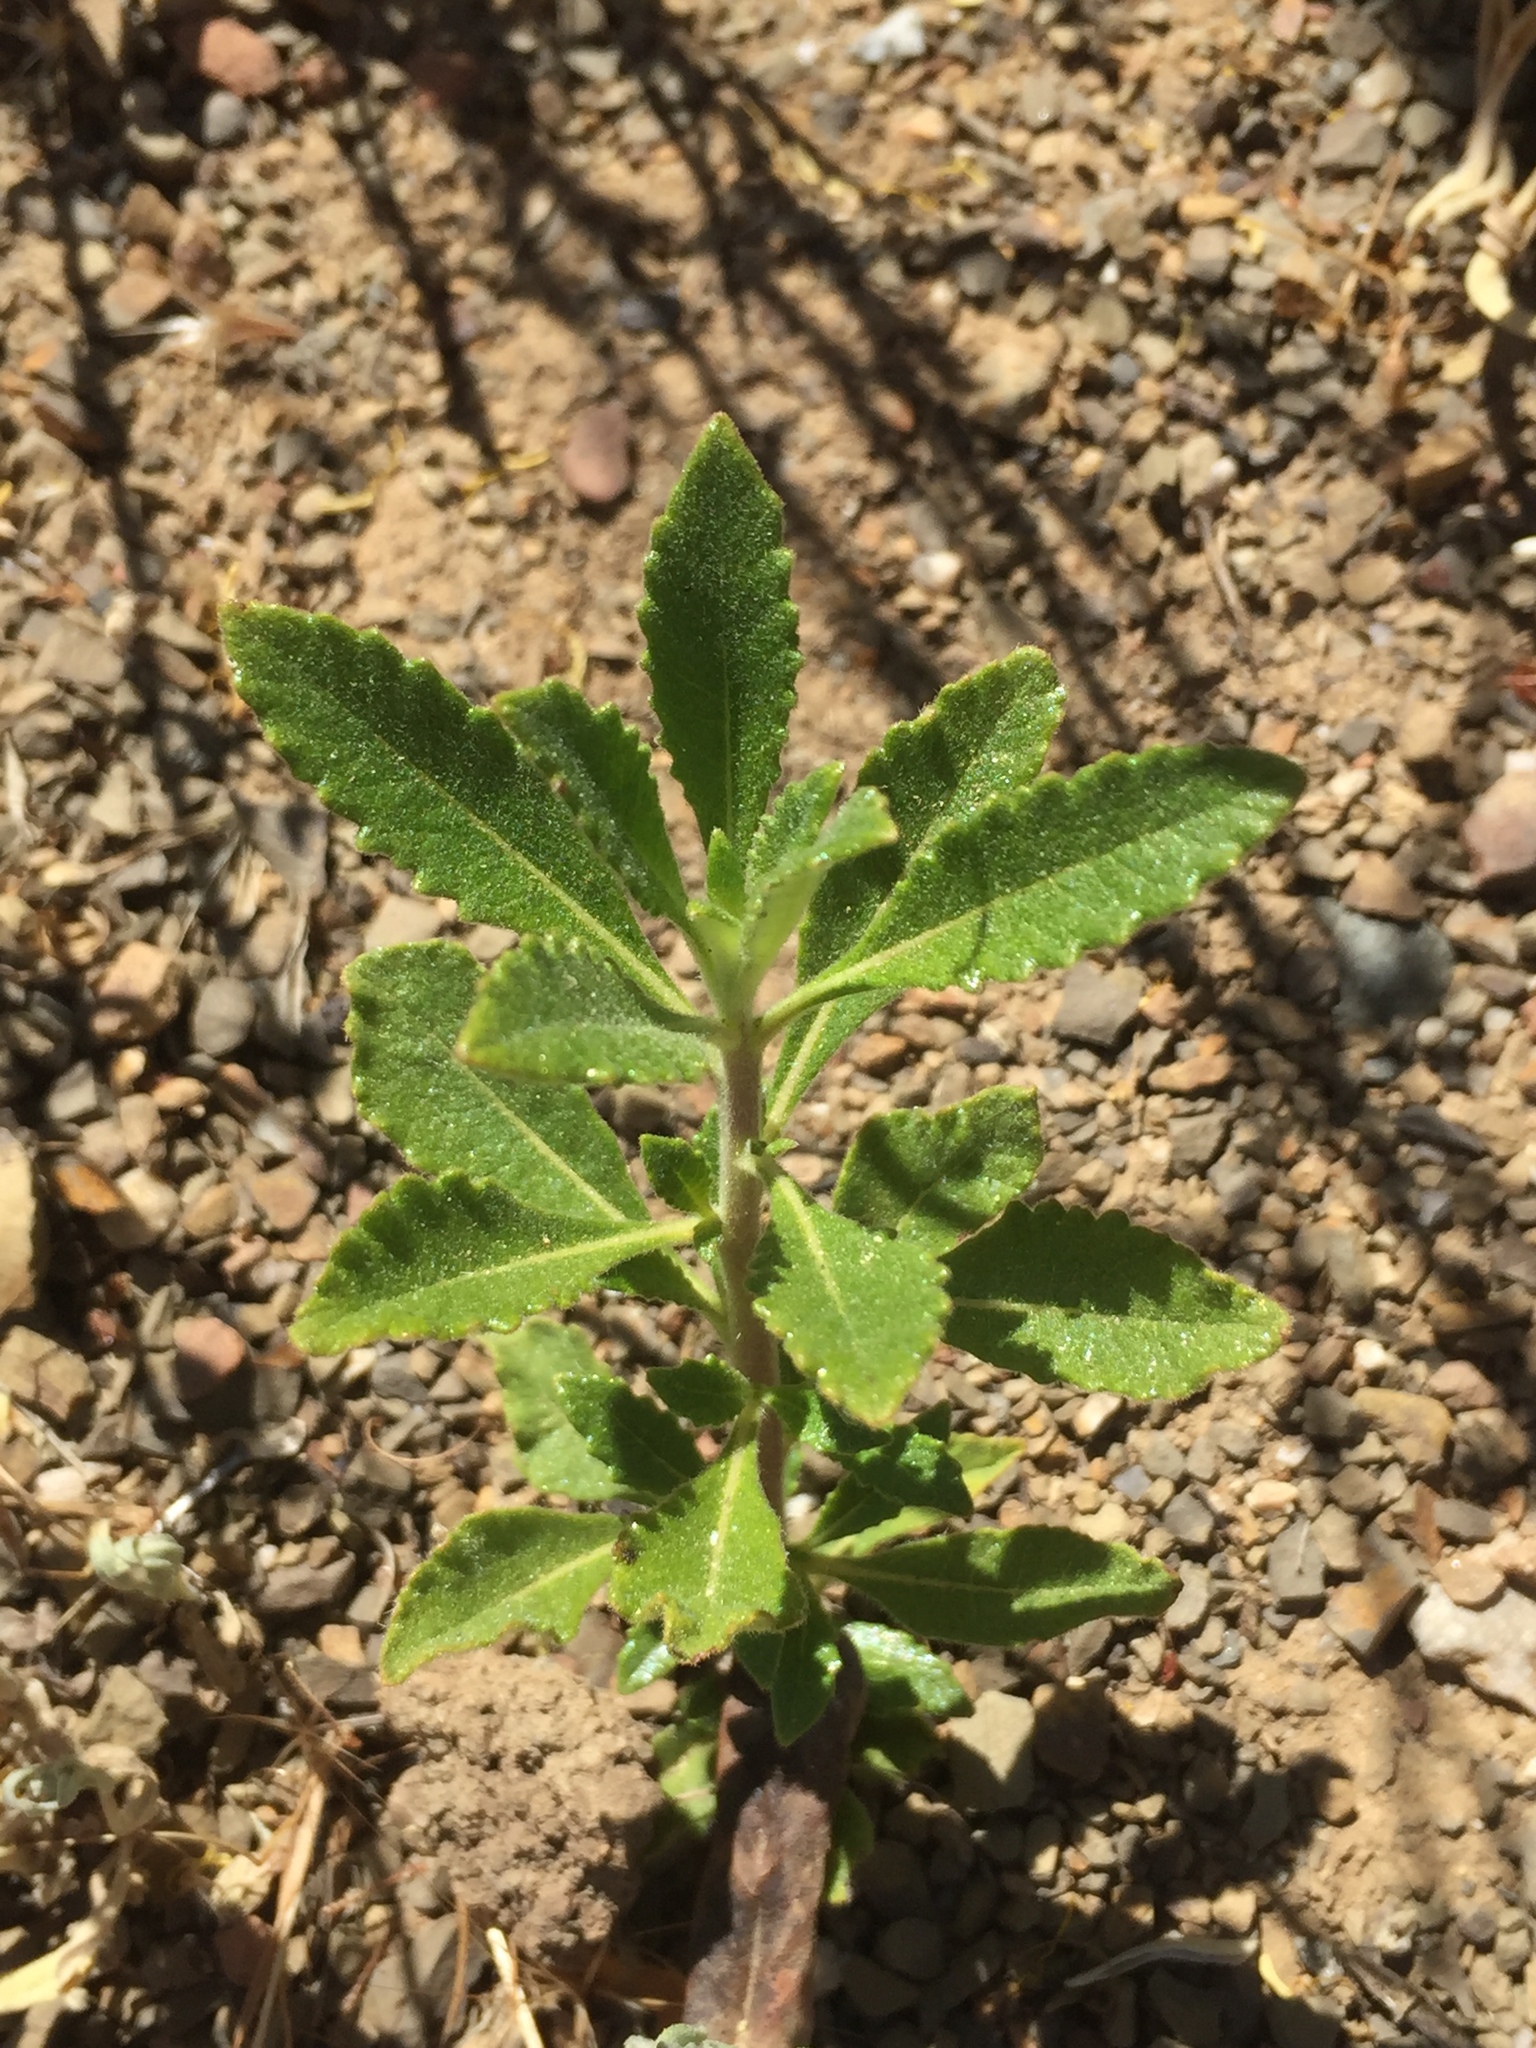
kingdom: Plantae
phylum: Tracheophyta
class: Magnoliopsida
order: Boraginales
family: Namaceae
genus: Eriodictyon
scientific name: Eriodictyon crassifolium
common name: Thick-leaf yerba-santa
